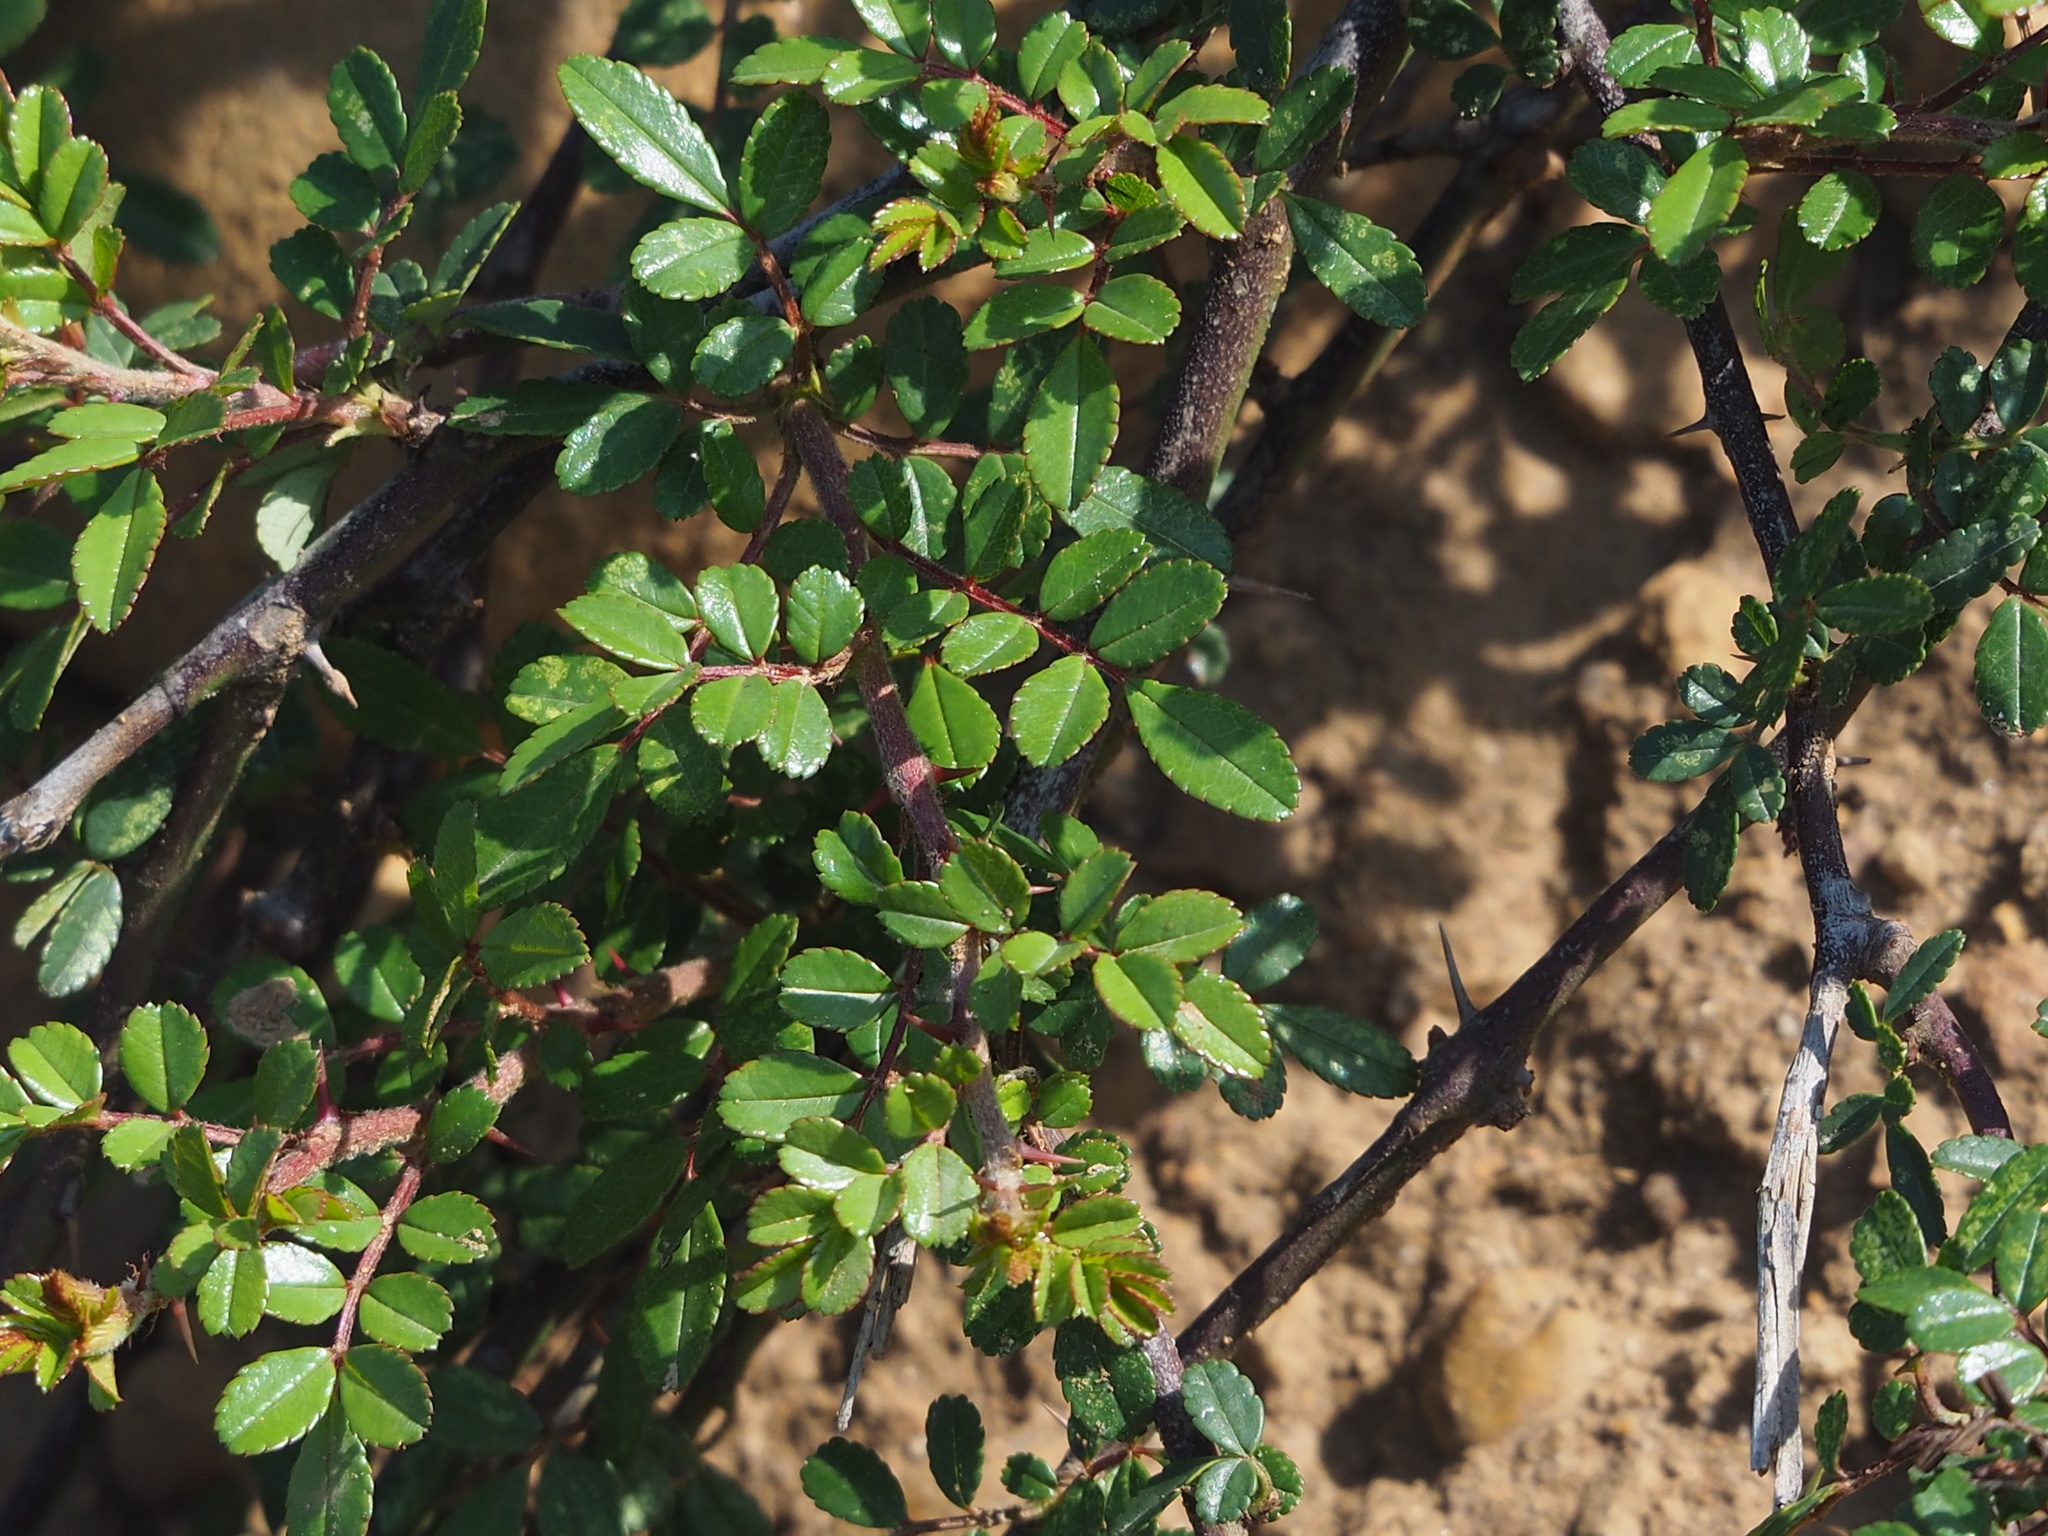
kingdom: Plantae
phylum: Tracheophyta
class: Magnoliopsida
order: Rosales
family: Rosaceae
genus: Rosa
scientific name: Rosa bracteata
